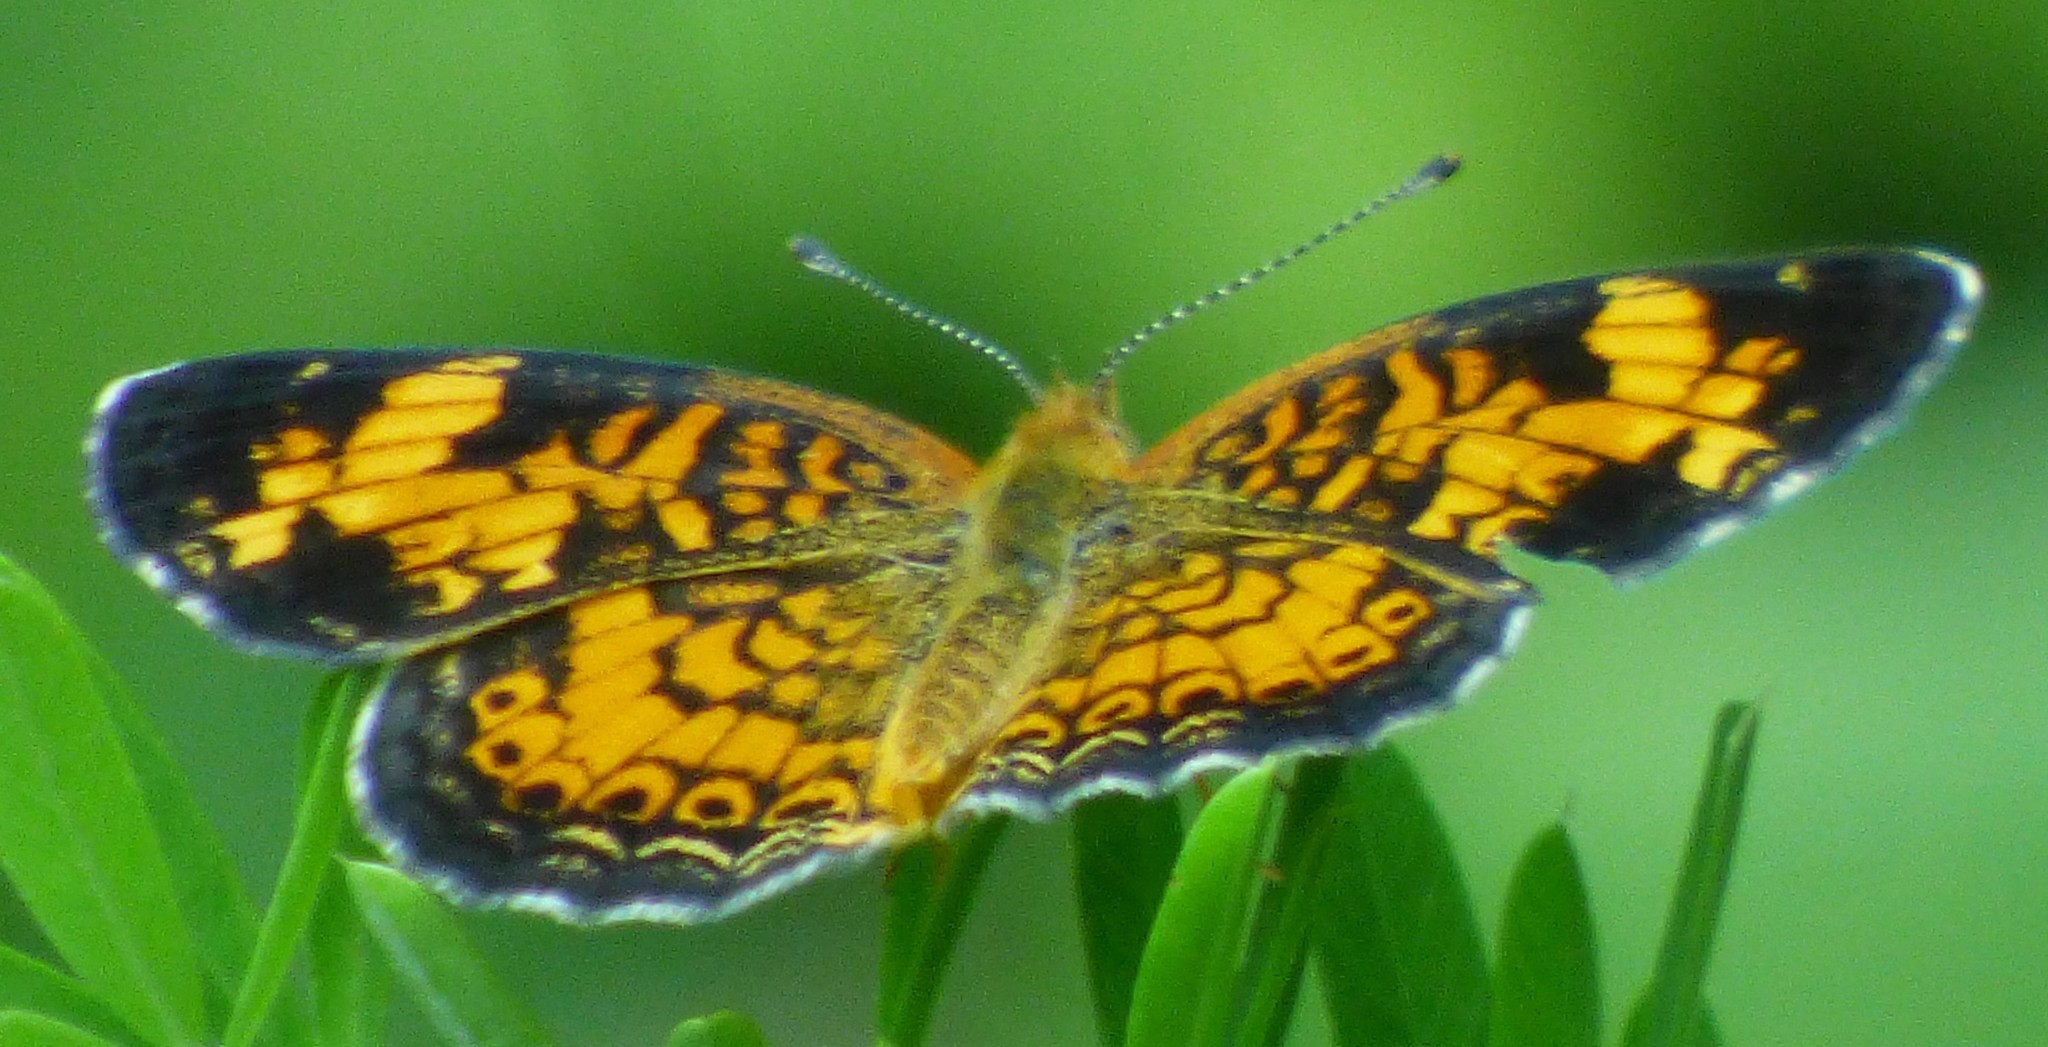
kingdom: Animalia
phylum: Arthropoda
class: Insecta
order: Lepidoptera
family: Nymphalidae
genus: Phyciodes
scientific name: Phyciodes tharos
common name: Pearl crescent
